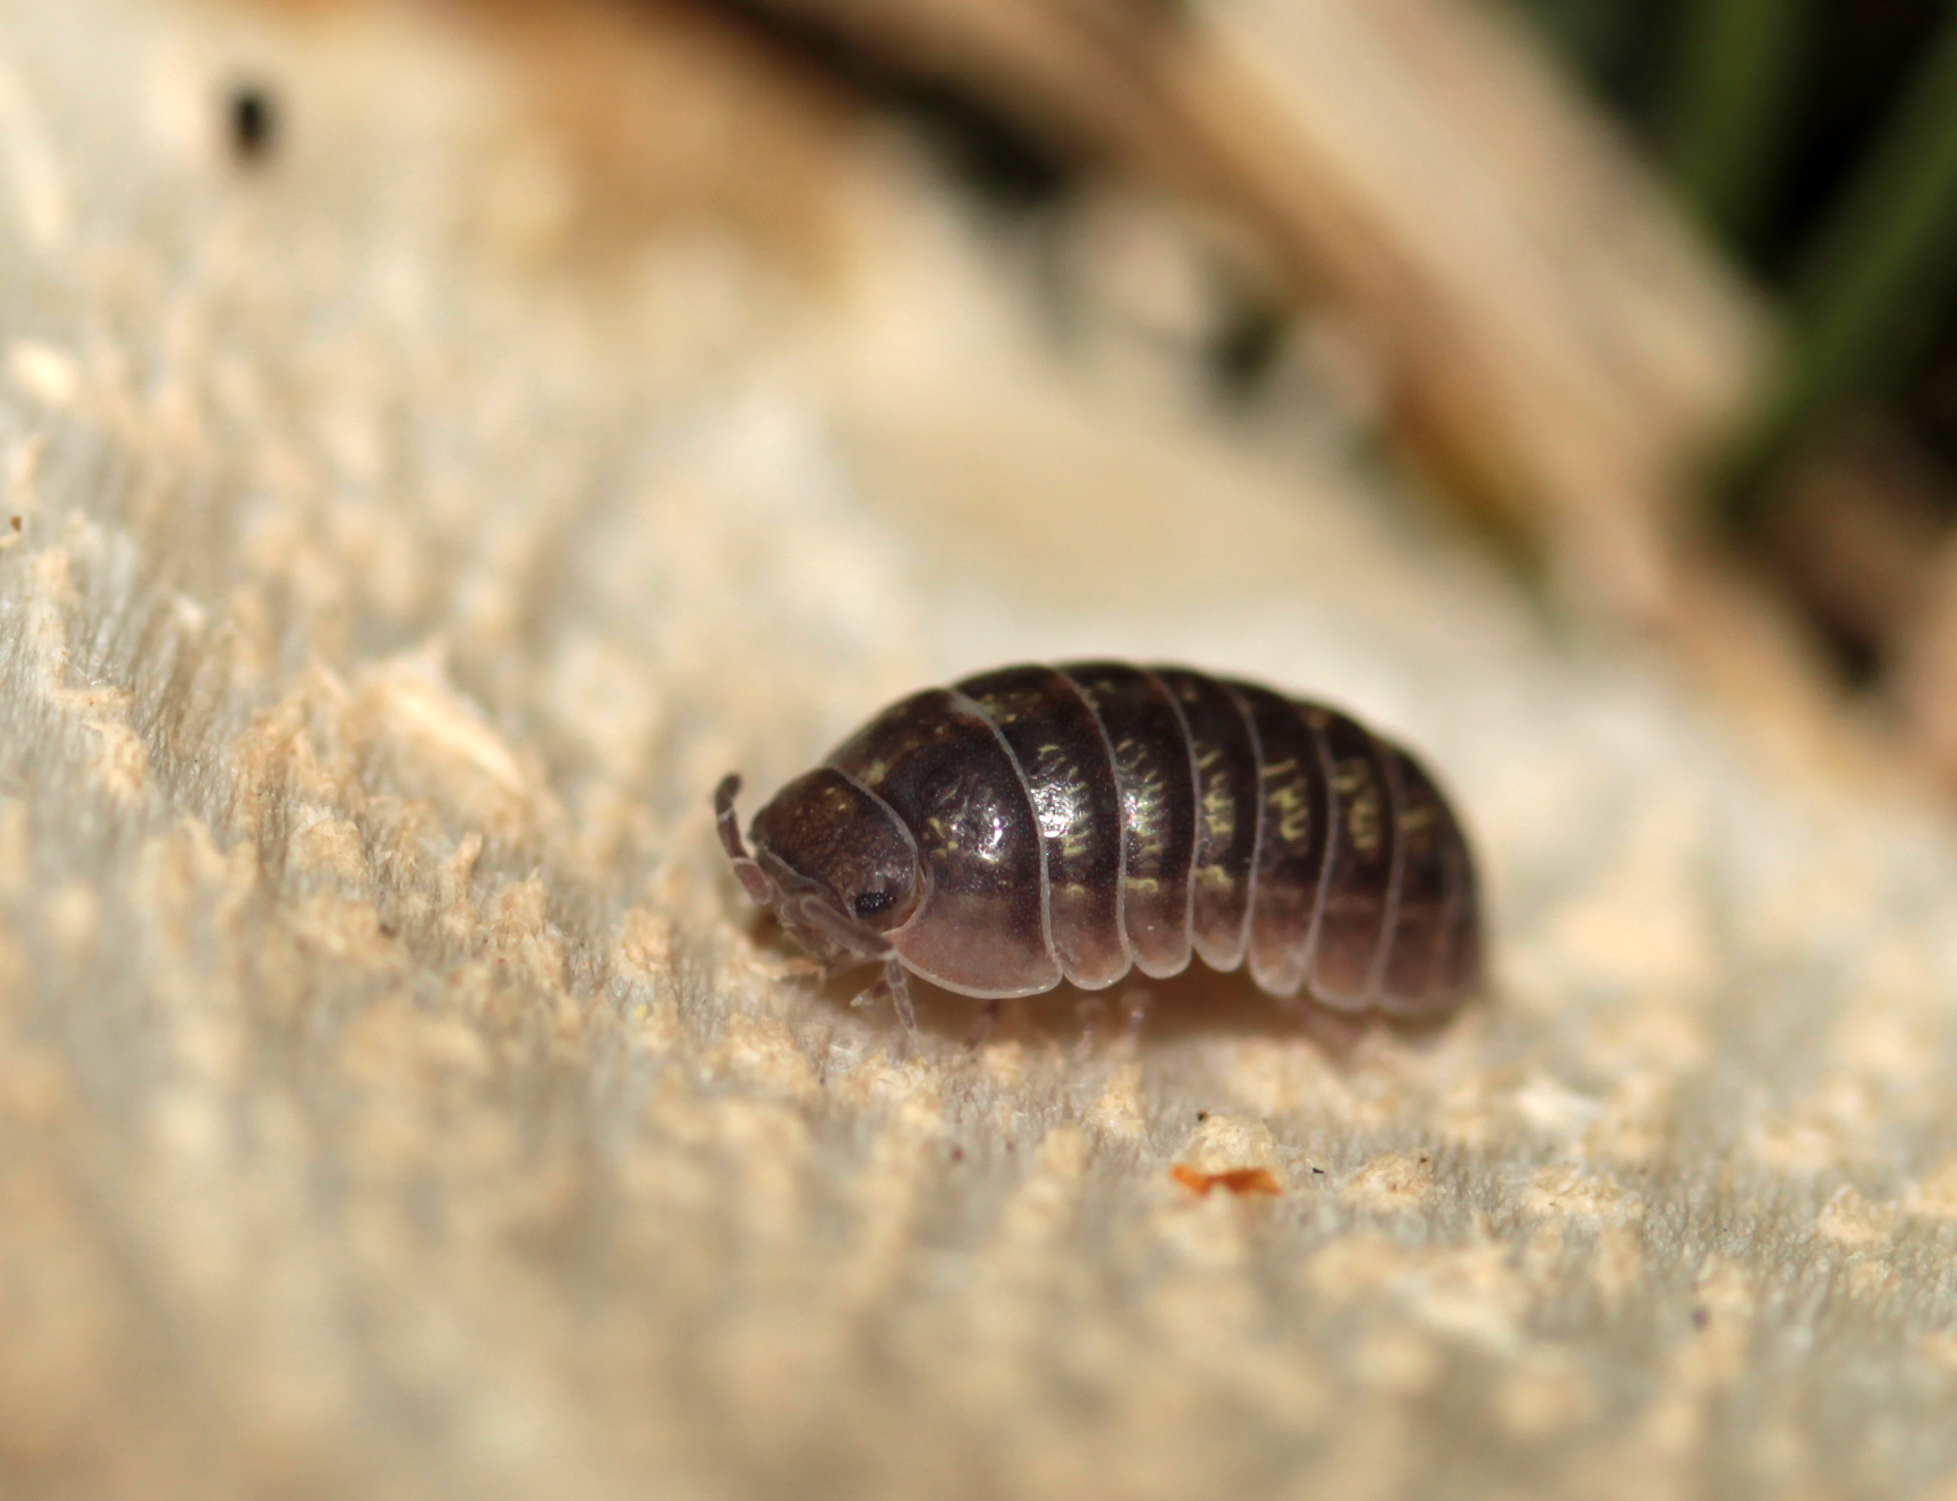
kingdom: Animalia
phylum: Arthropoda
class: Malacostraca
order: Isopoda
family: Armadillidiidae
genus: Armadillidium
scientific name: Armadillidium vulgare
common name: Common pill woodlouse
